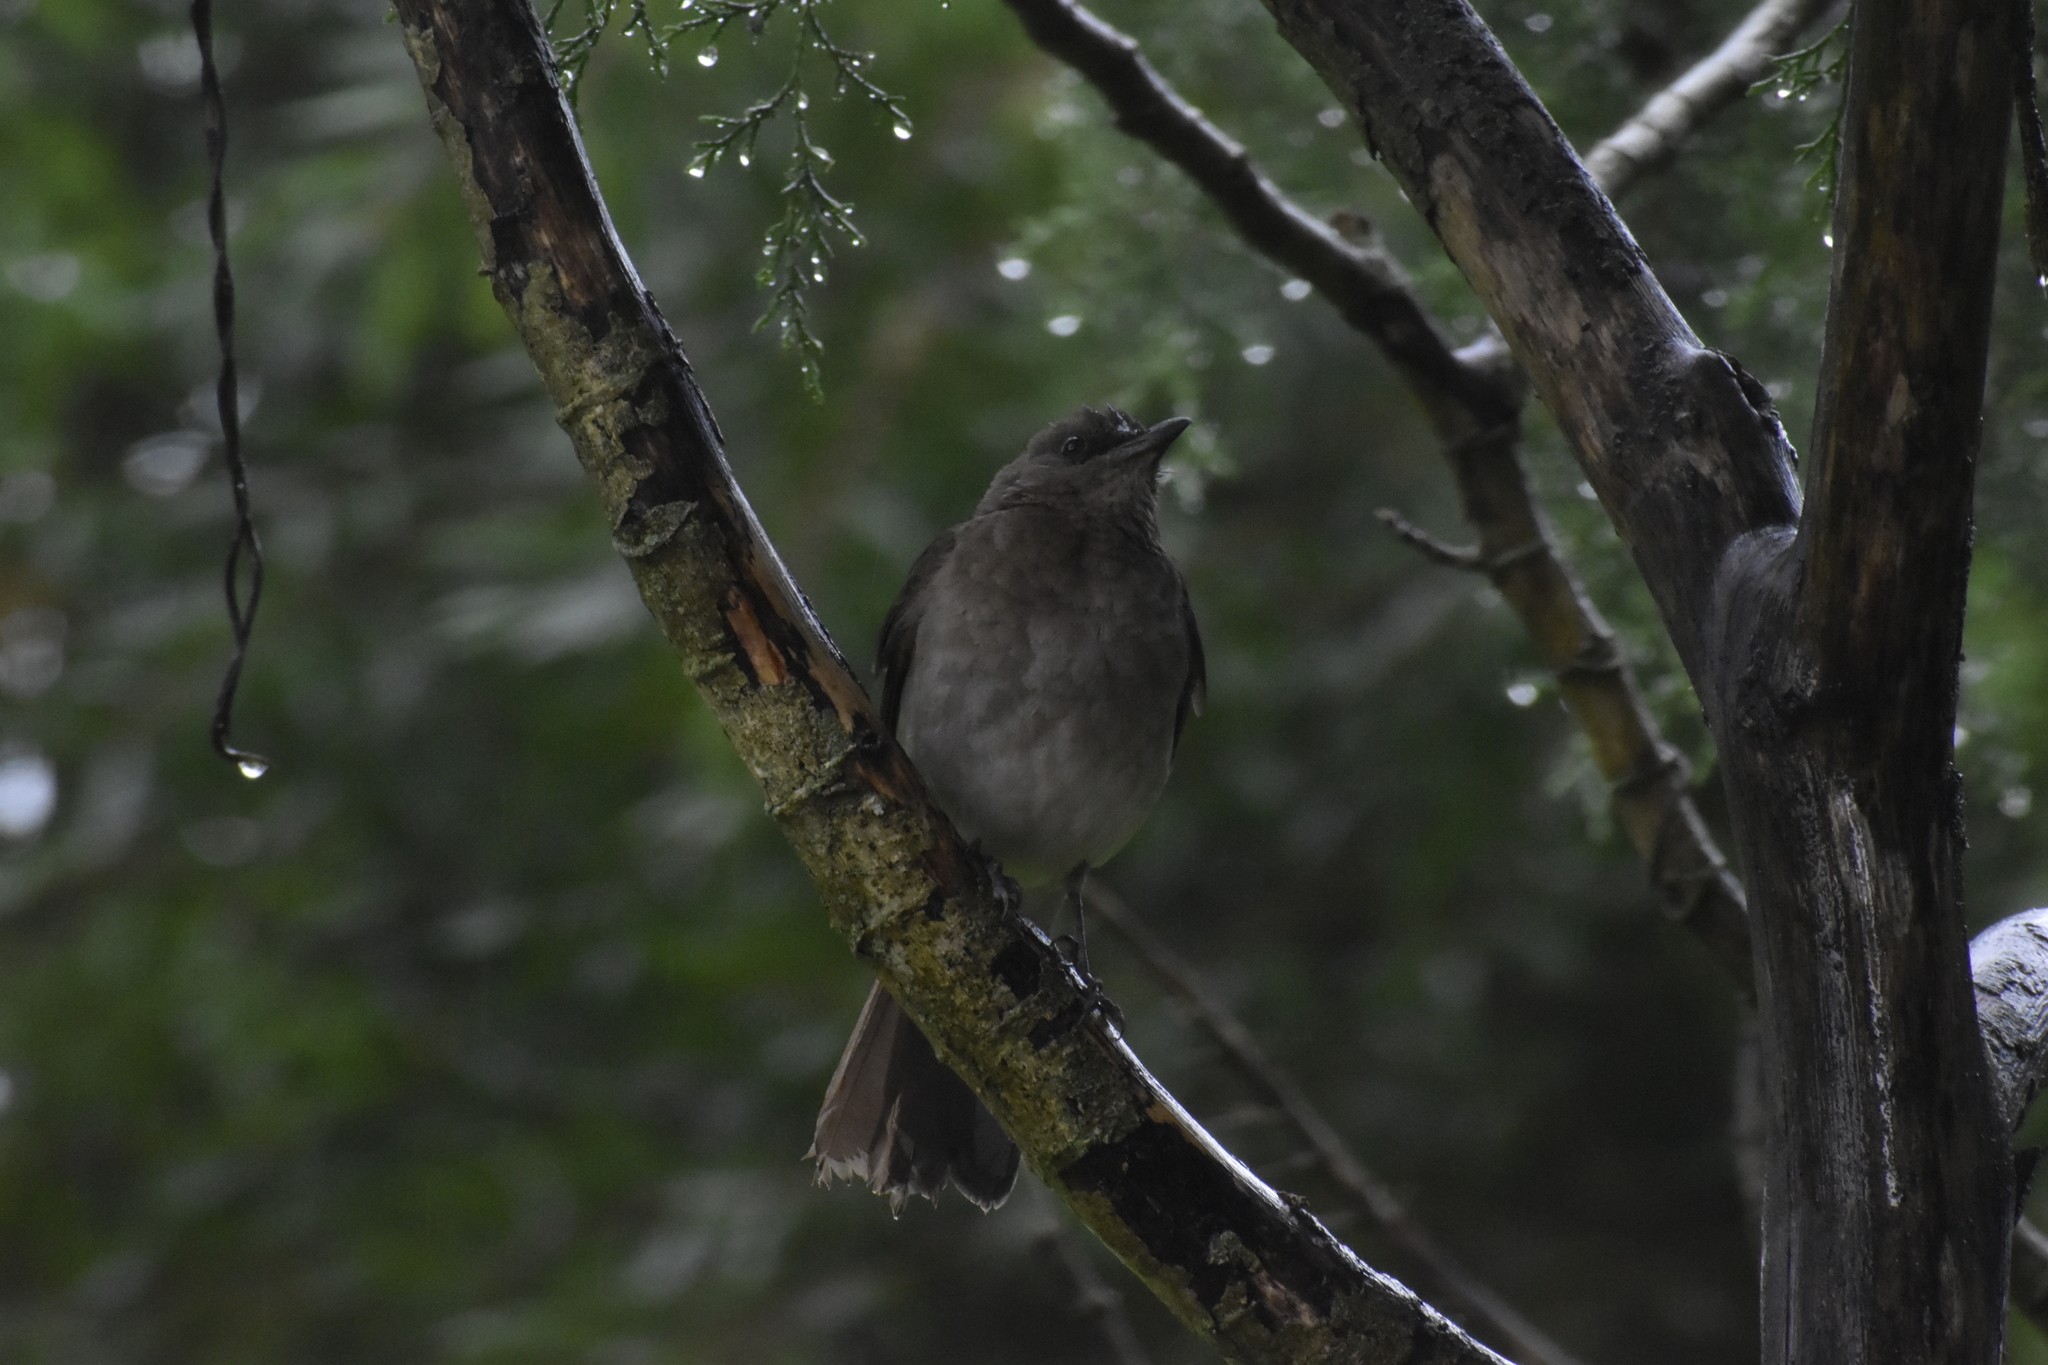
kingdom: Animalia
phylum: Chordata
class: Aves
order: Passeriformes
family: Turdidae
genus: Turdus
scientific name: Turdus ignobilis
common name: Black-billed thrush
